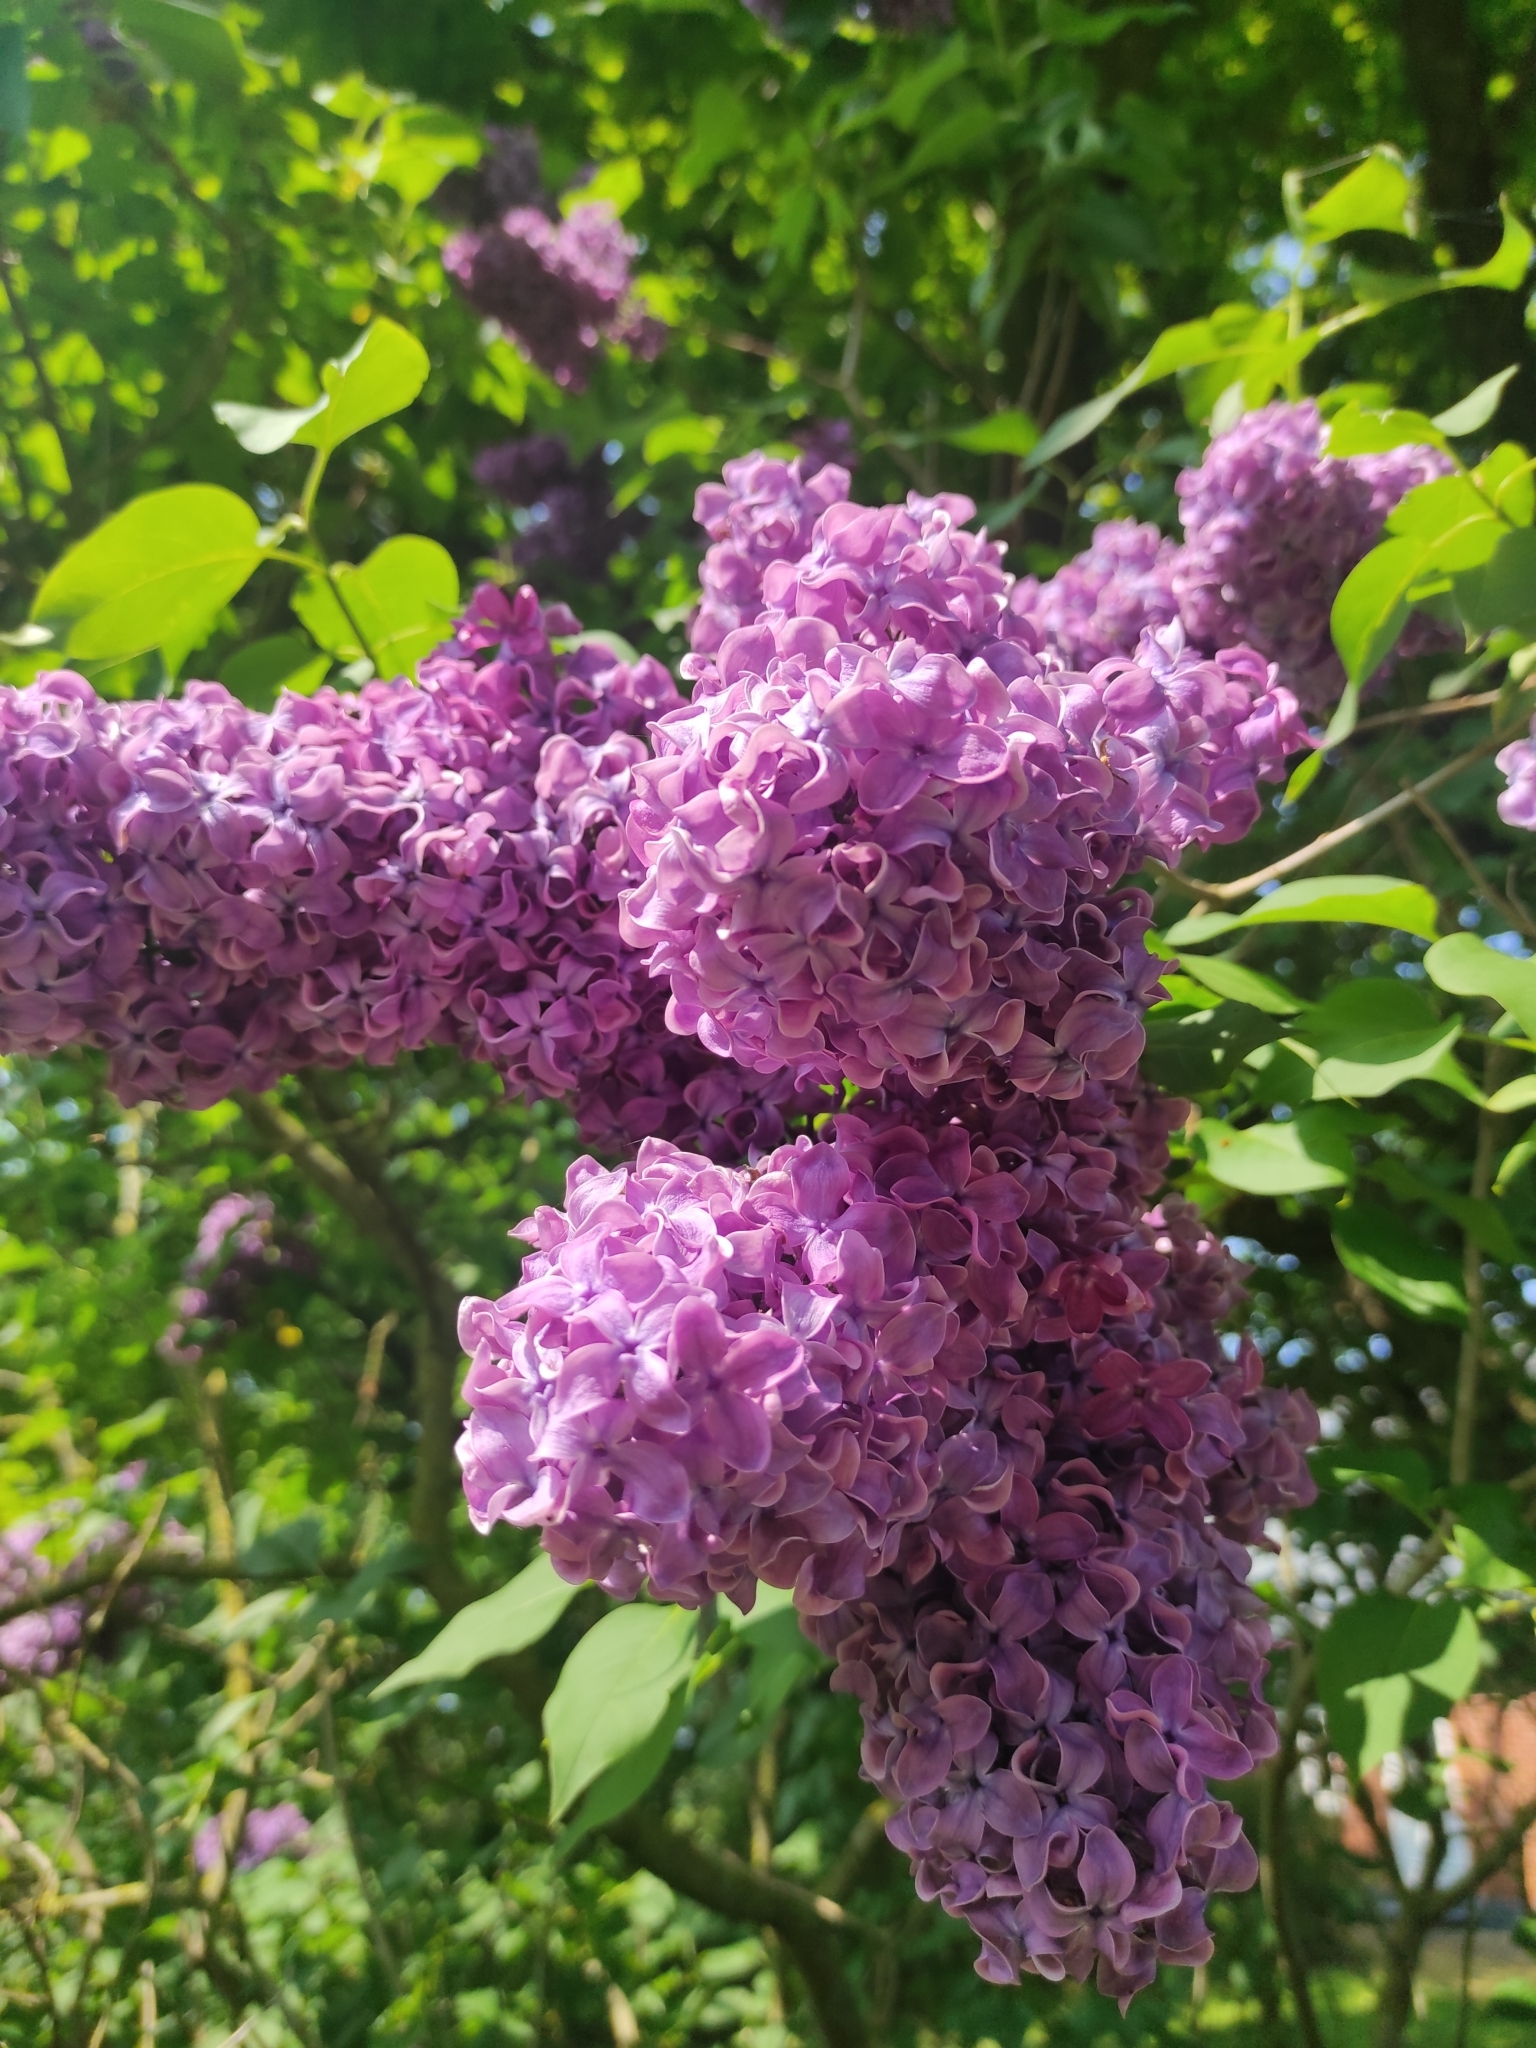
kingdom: Plantae
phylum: Tracheophyta
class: Magnoliopsida
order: Lamiales
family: Oleaceae
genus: Syringa
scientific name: Syringa vulgaris
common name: Common lilac
